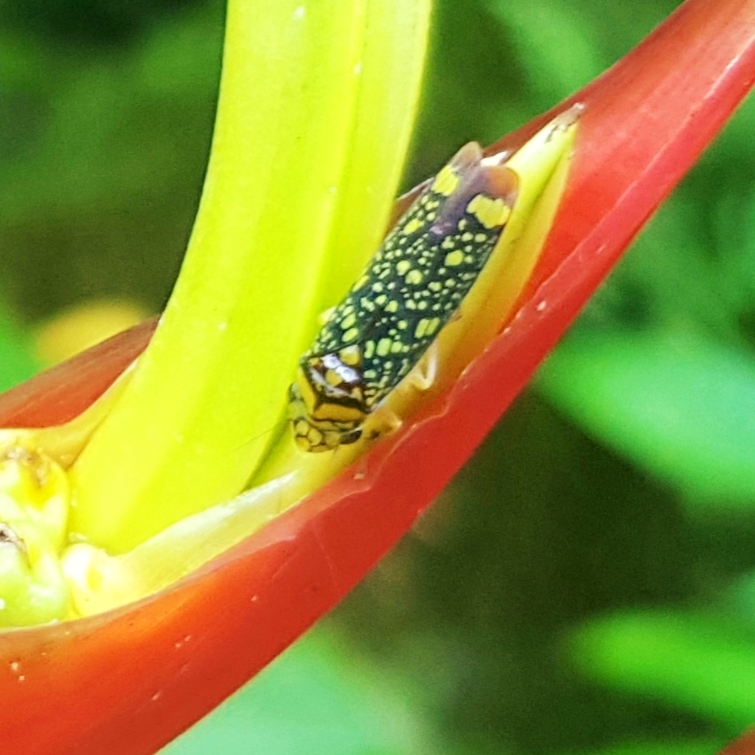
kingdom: Animalia
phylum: Arthropoda
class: Insecta
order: Hemiptera
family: Cicadellidae
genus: Aulacizes
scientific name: Aulacizes conspersa
